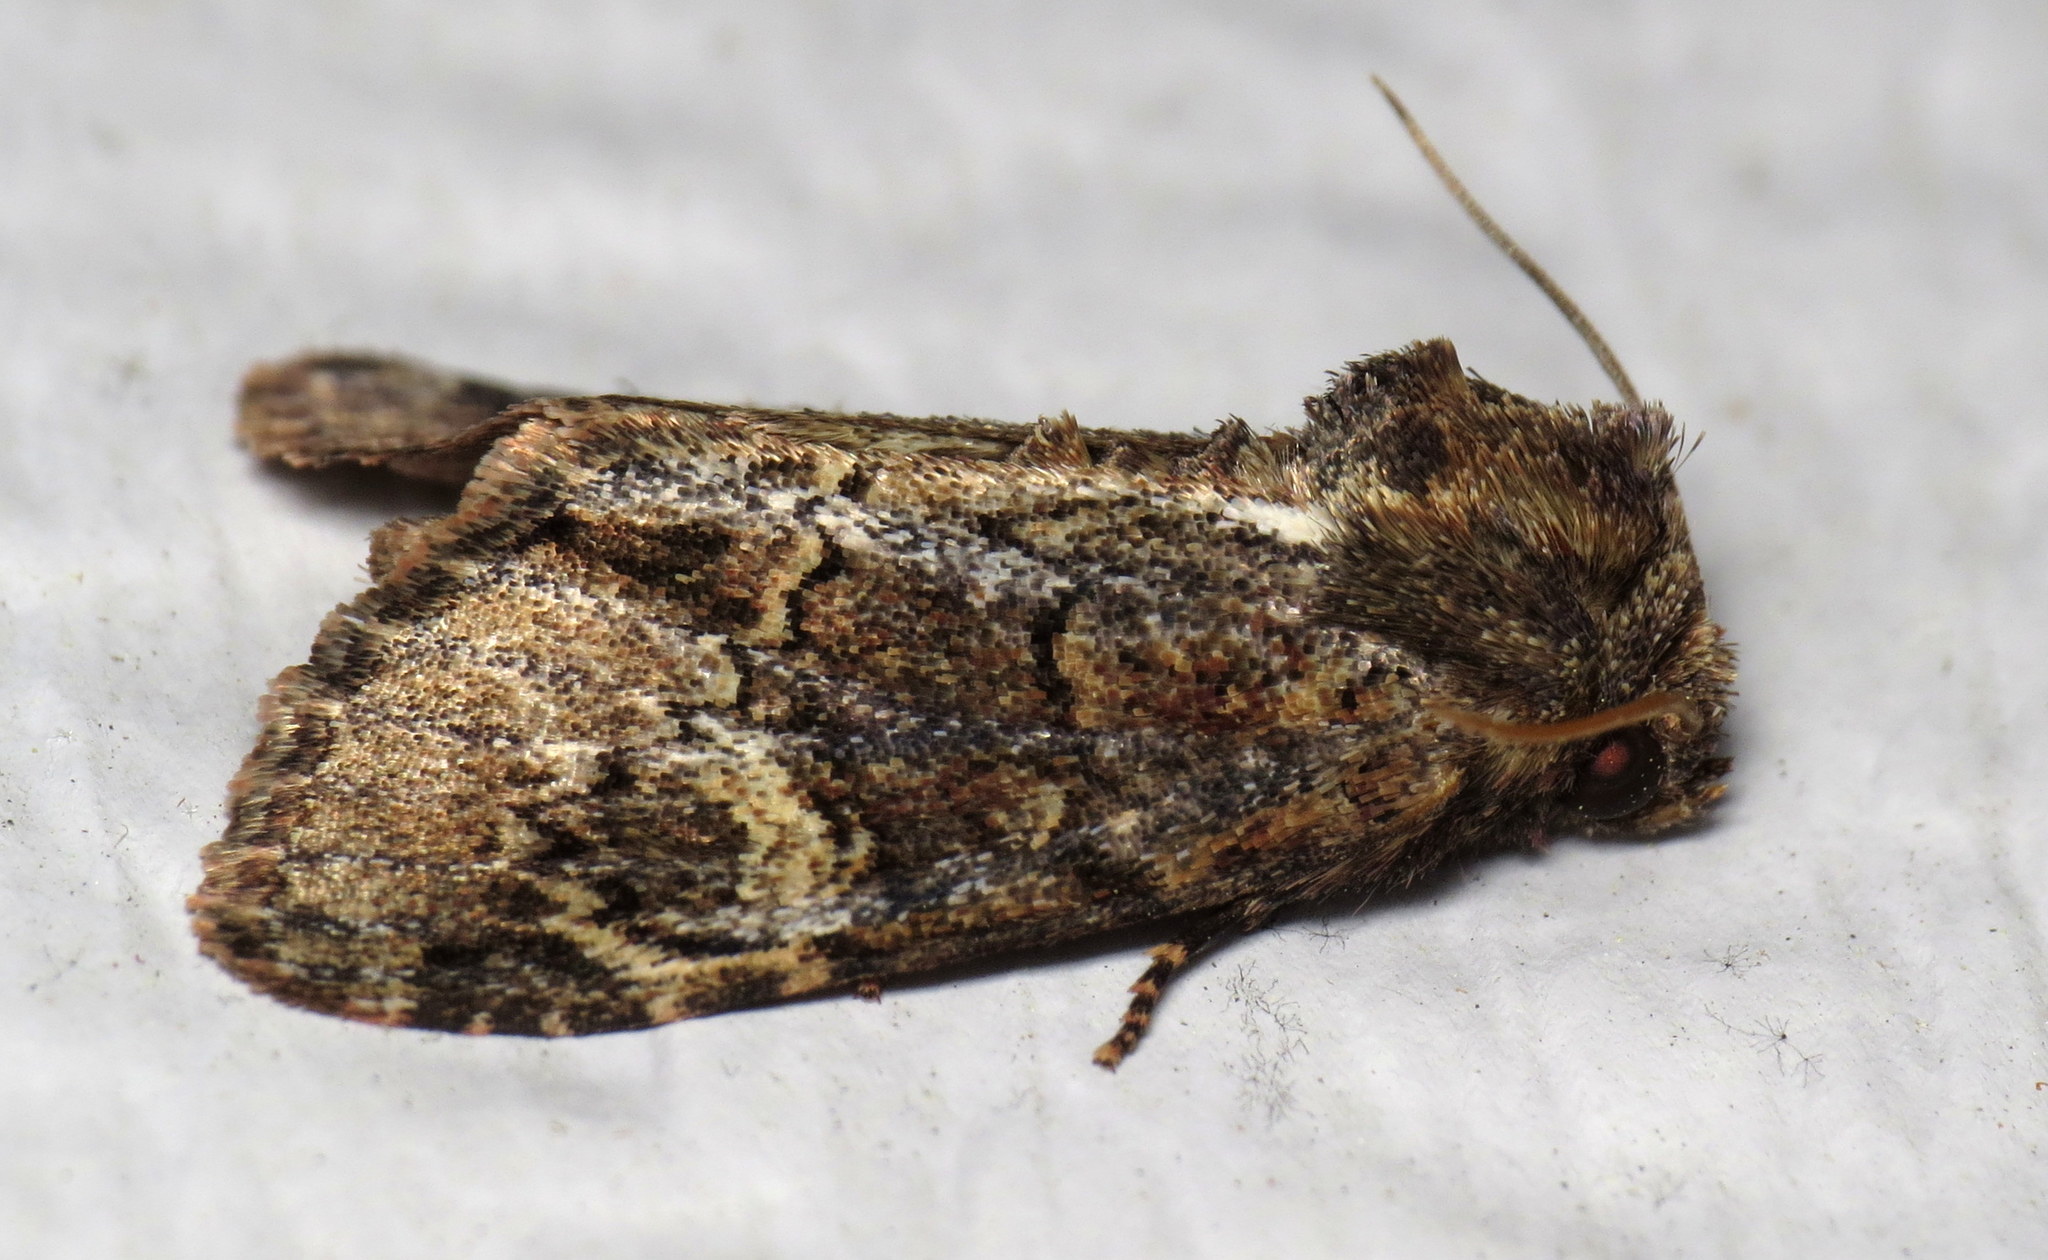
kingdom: Animalia
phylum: Arthropoda
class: Insecta
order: Lepidoptera
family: Noctuidae
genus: Phosphila
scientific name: Phosphila turbulenta
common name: Turbulent phosphila moth
